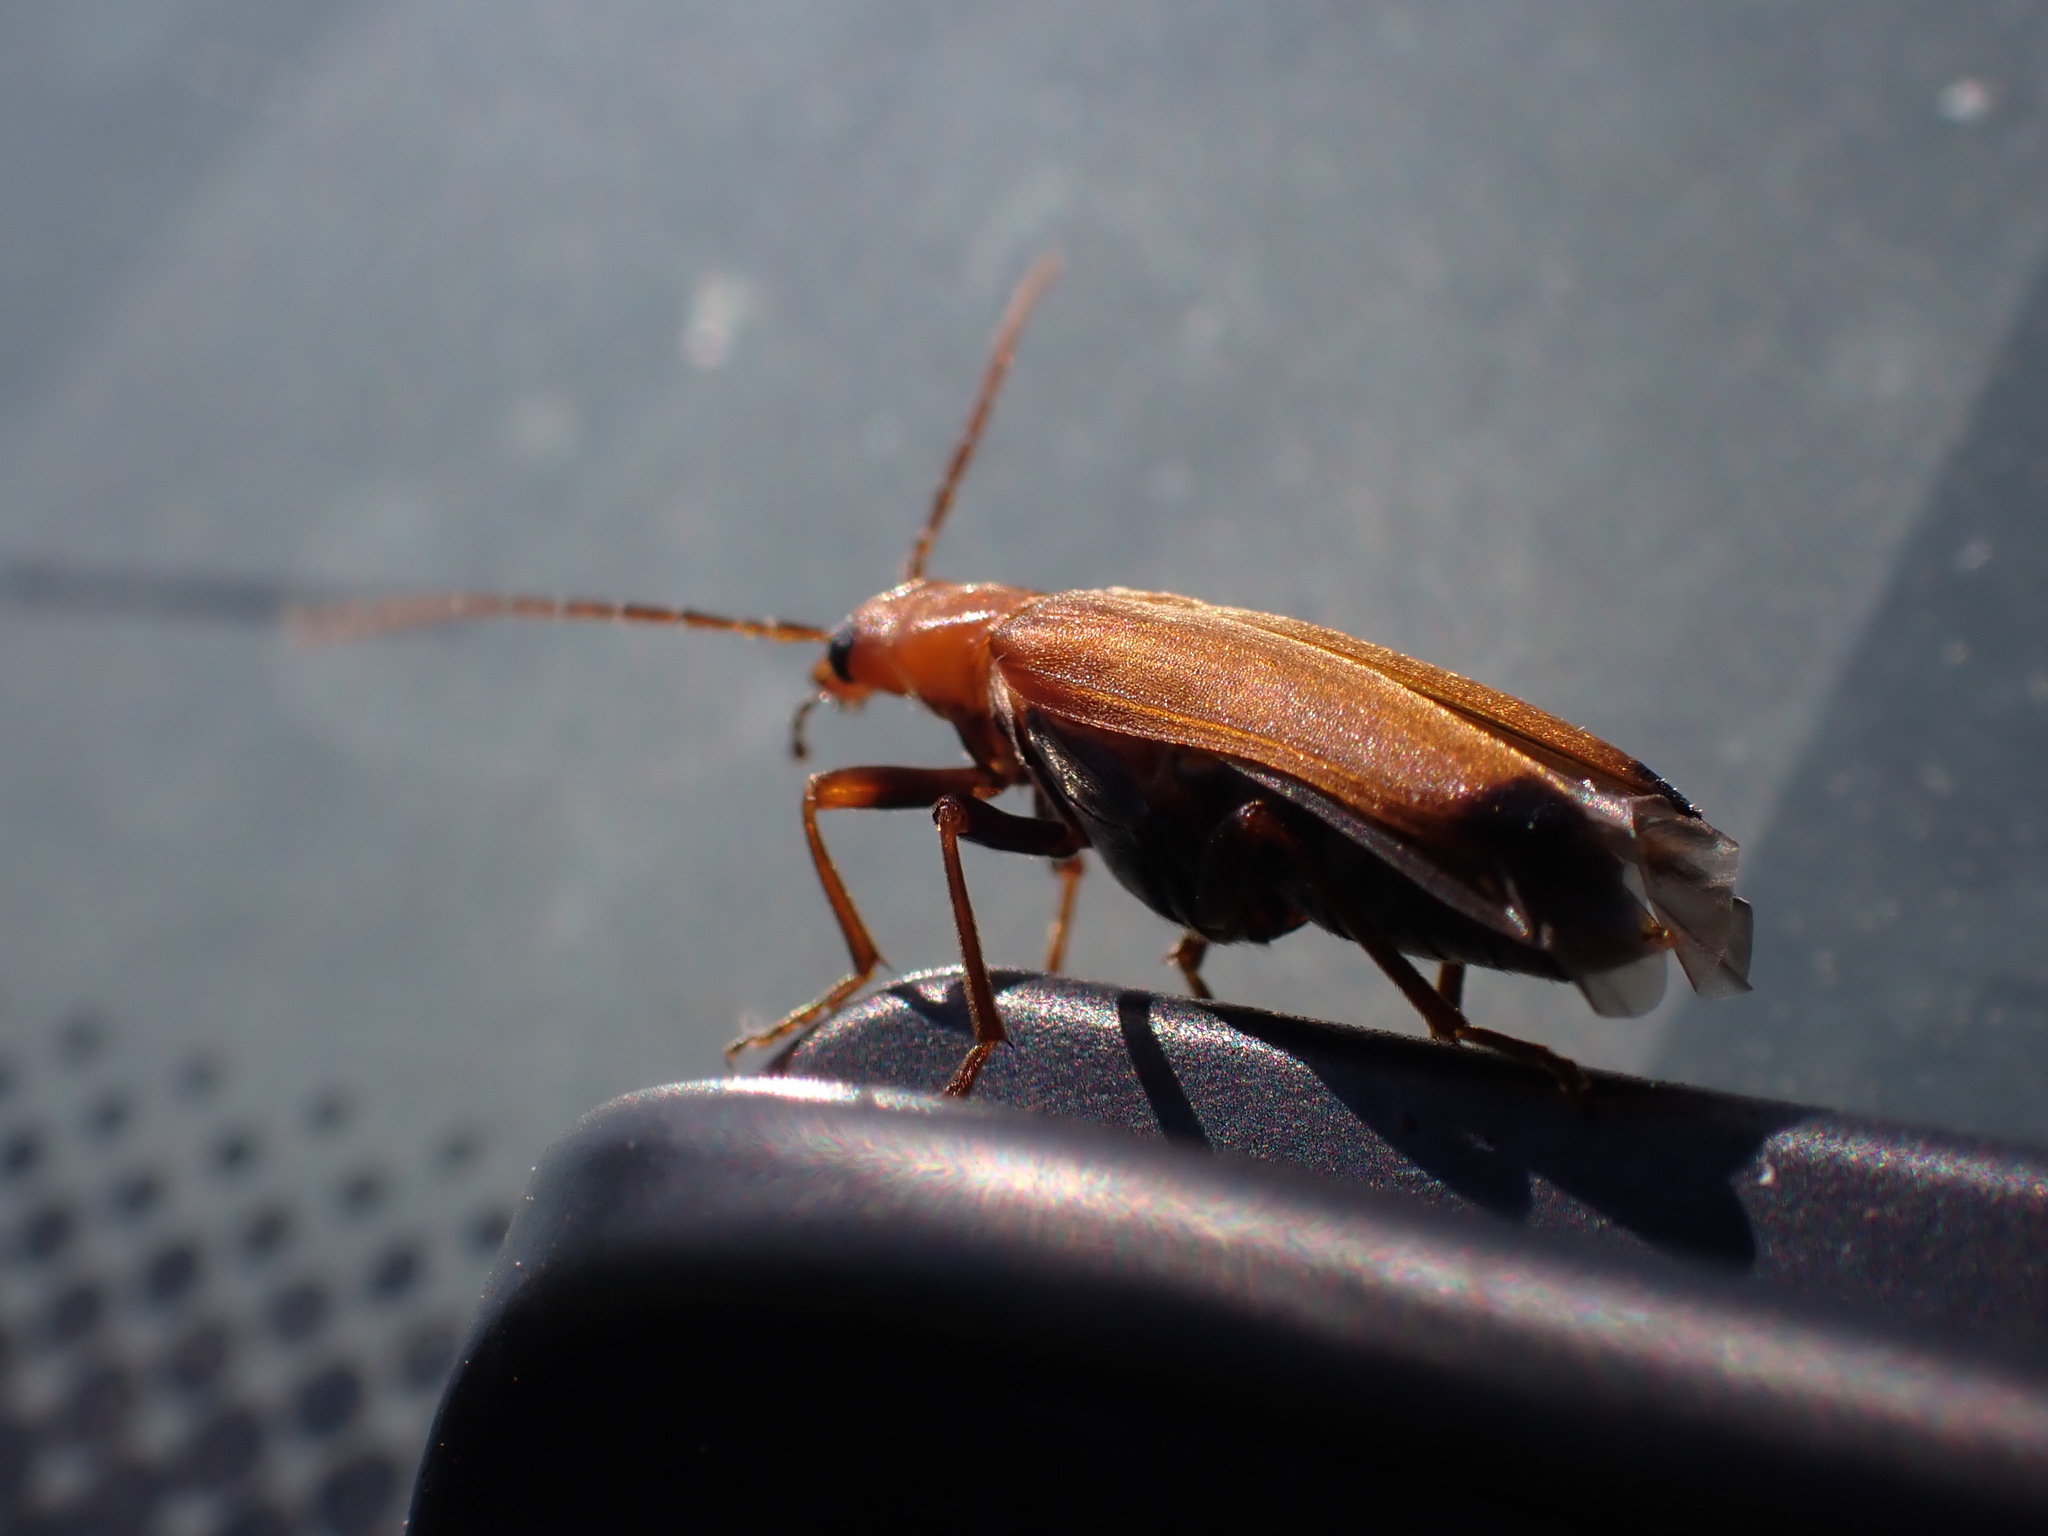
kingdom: Animalia
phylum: Arthropoda
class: Insecta
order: Coleoptera
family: Oedemeridae
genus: Nacerdes
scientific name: Nacerdes melanura
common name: Wharf borer
